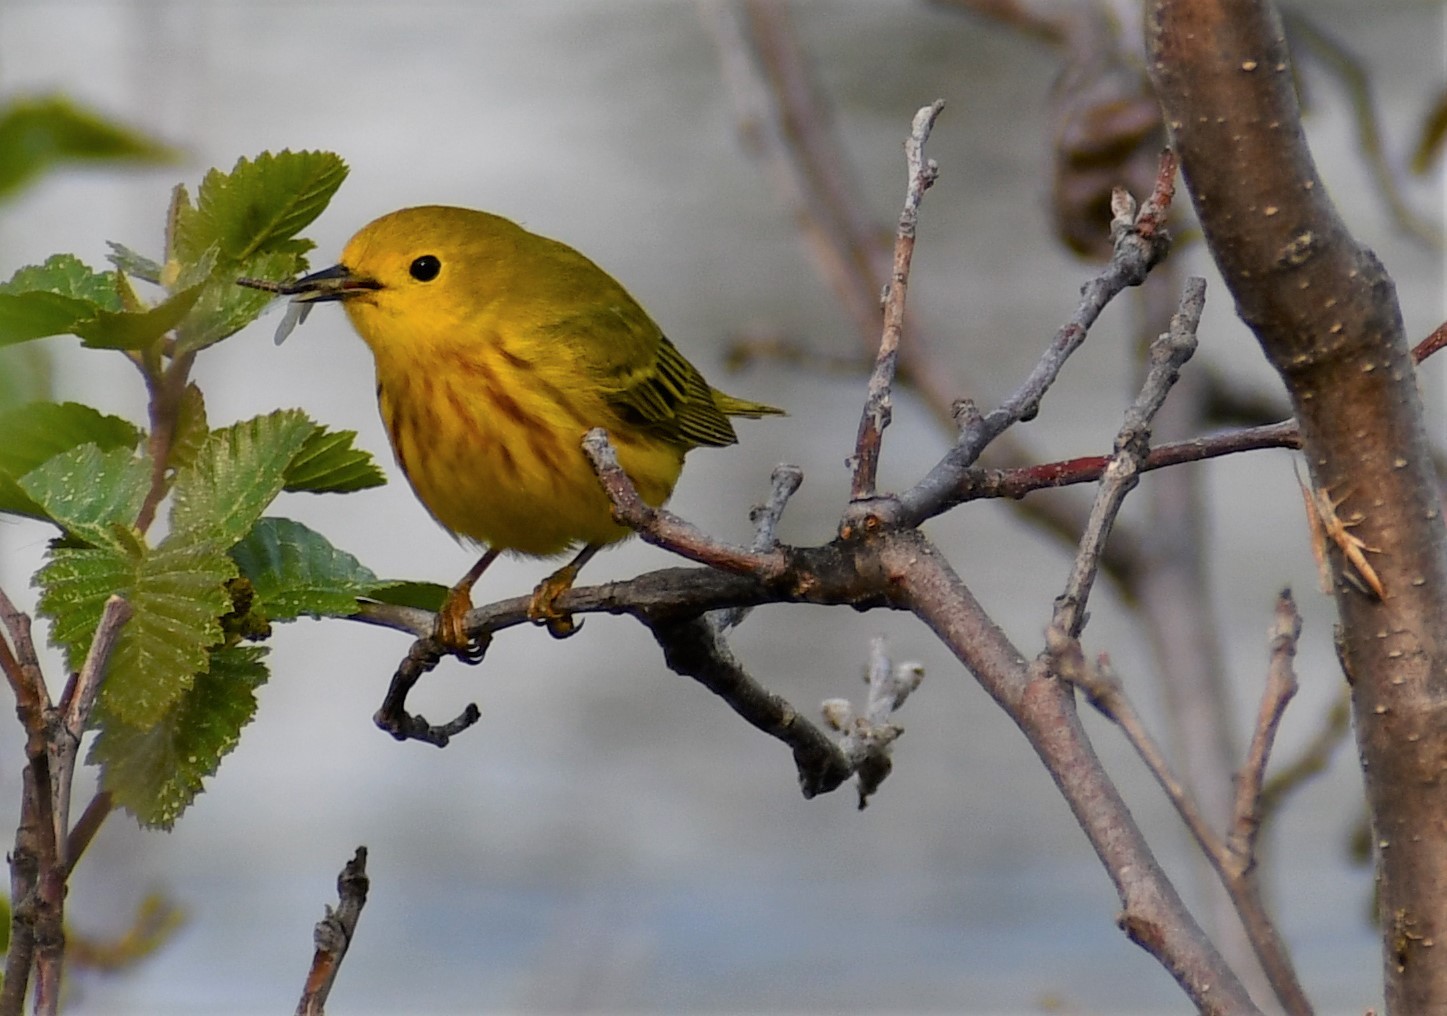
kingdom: Animalia
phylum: Chordata
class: Aves
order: Passeriformes
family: Parulidae
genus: Setophaga
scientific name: Setophaga petechia
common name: Yellow warbler
